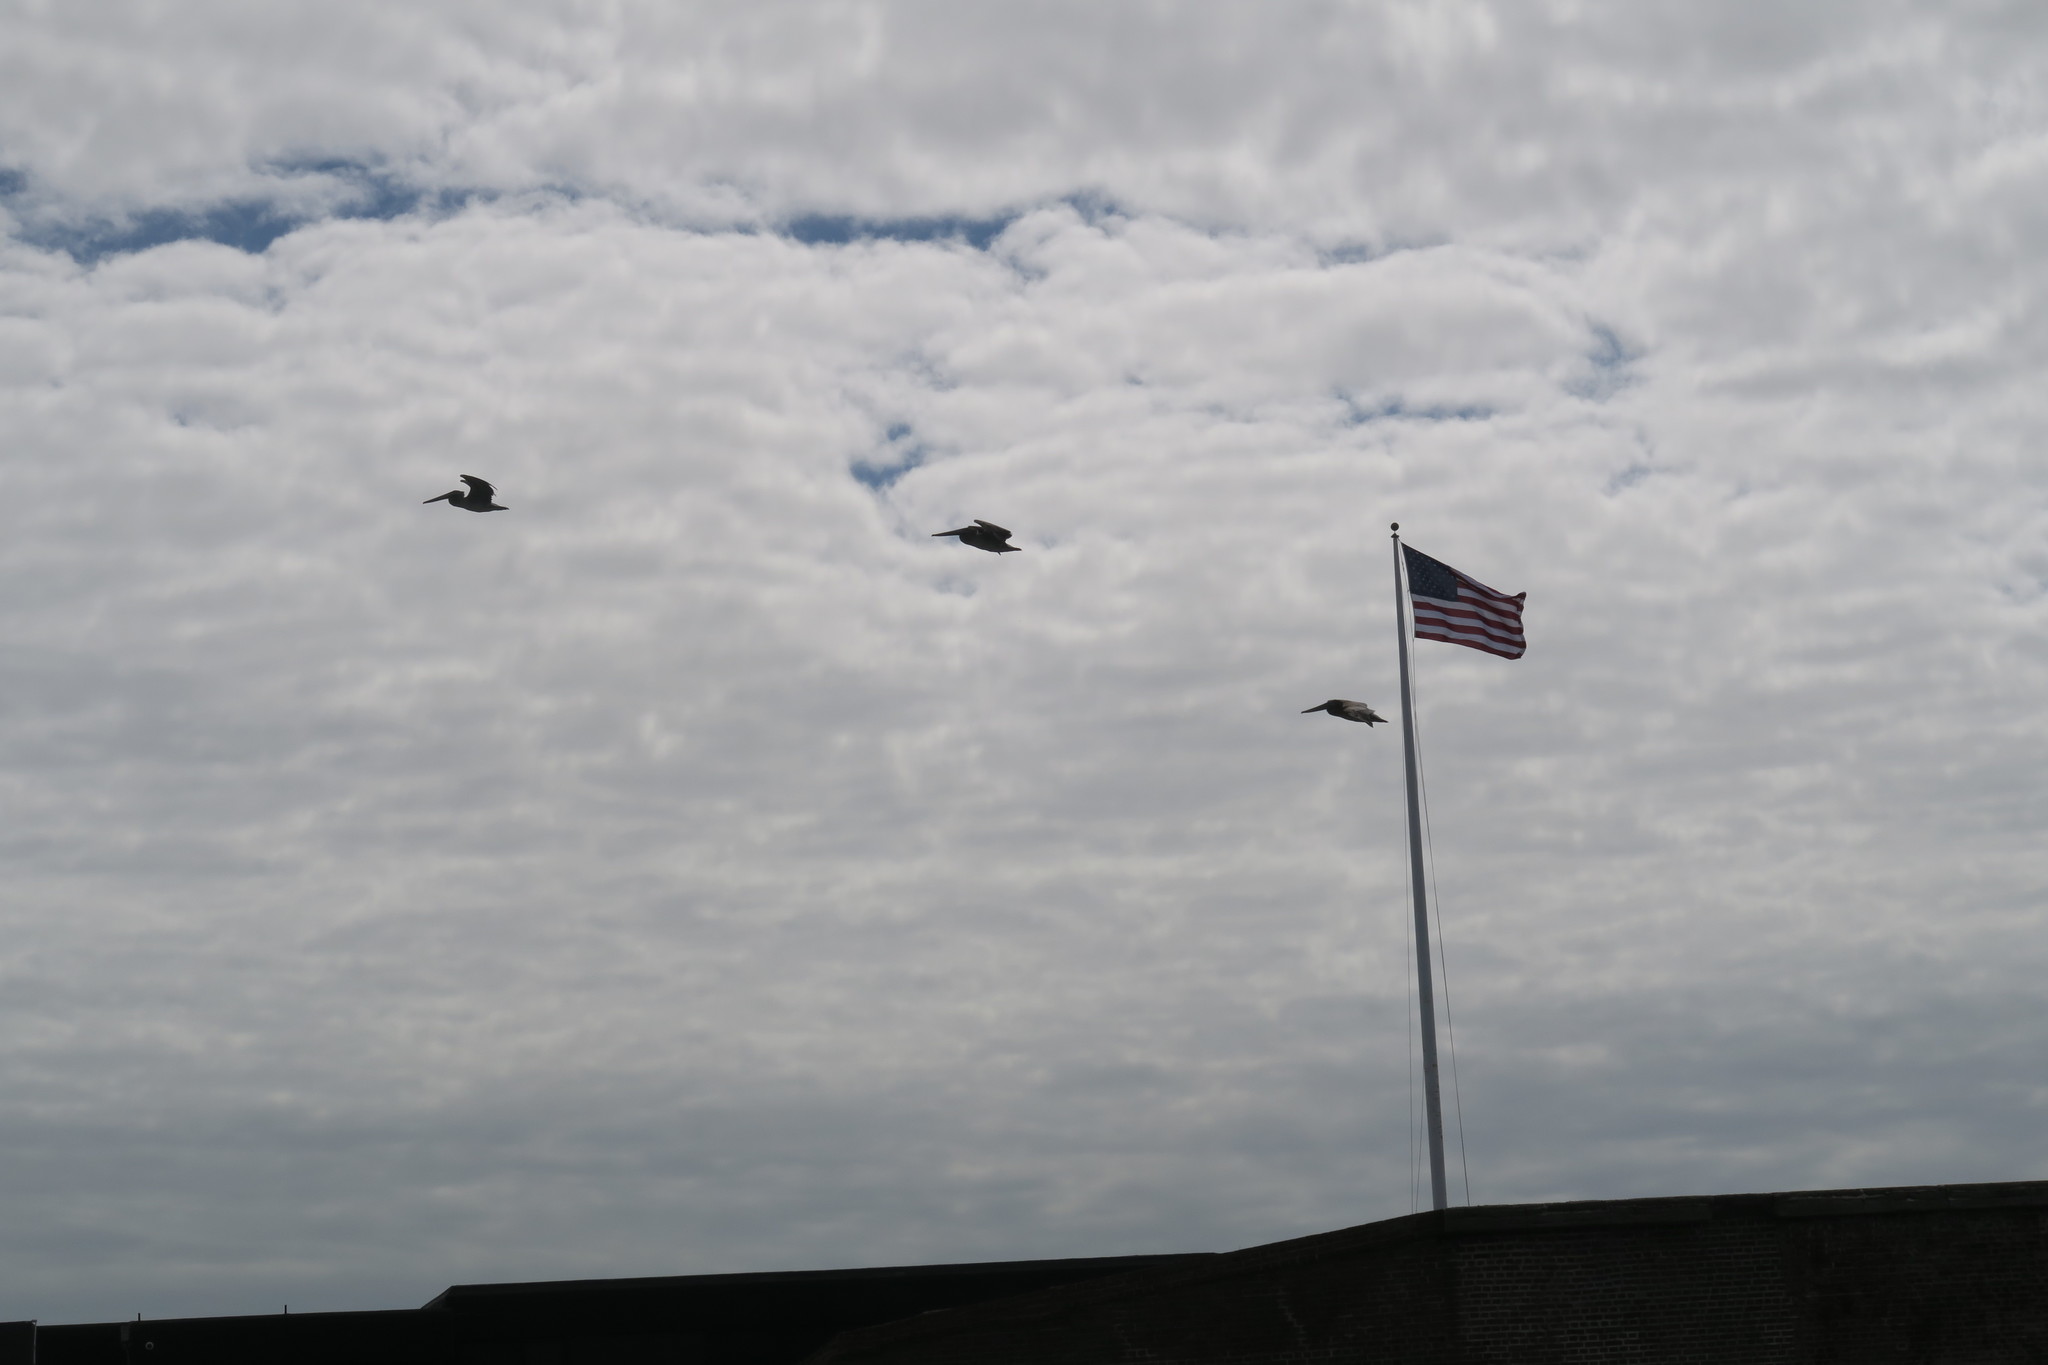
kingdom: Animalia
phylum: Chordata
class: Aves
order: Pelecaniformes
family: Pelecanidae
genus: Pelecanus
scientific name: Pelecanus occidentalis
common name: Brown pelican
